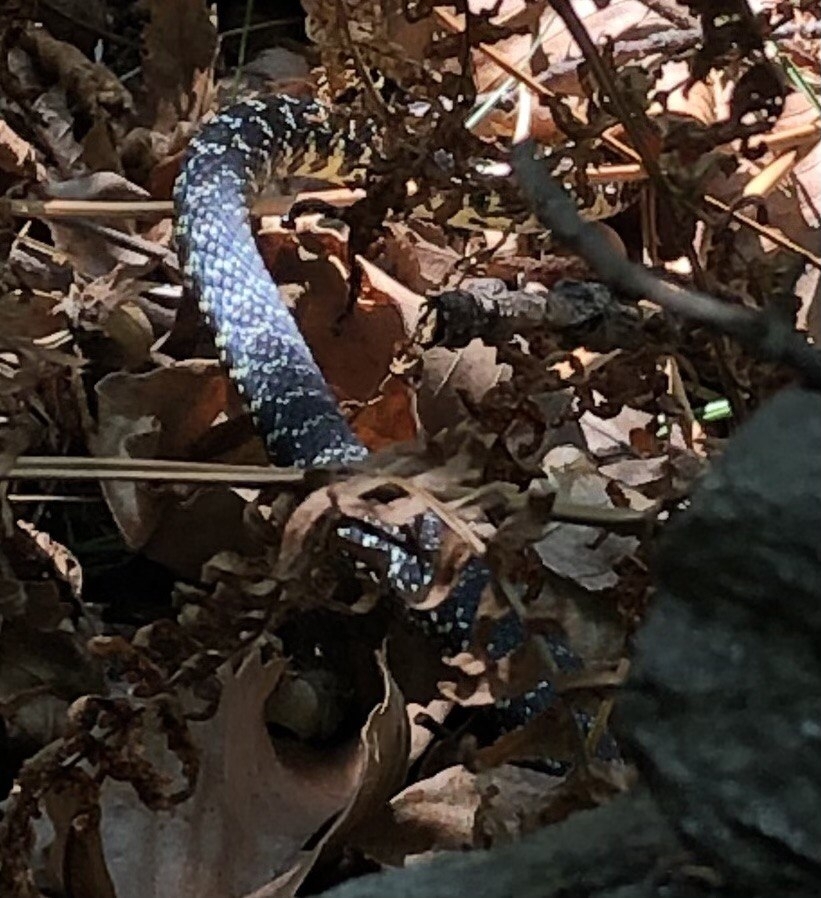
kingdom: Animalia
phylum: Chordata
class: Squamata
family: Colubridae
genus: Hierophis
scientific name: Hierophis viridiflavus
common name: Green whip snake
